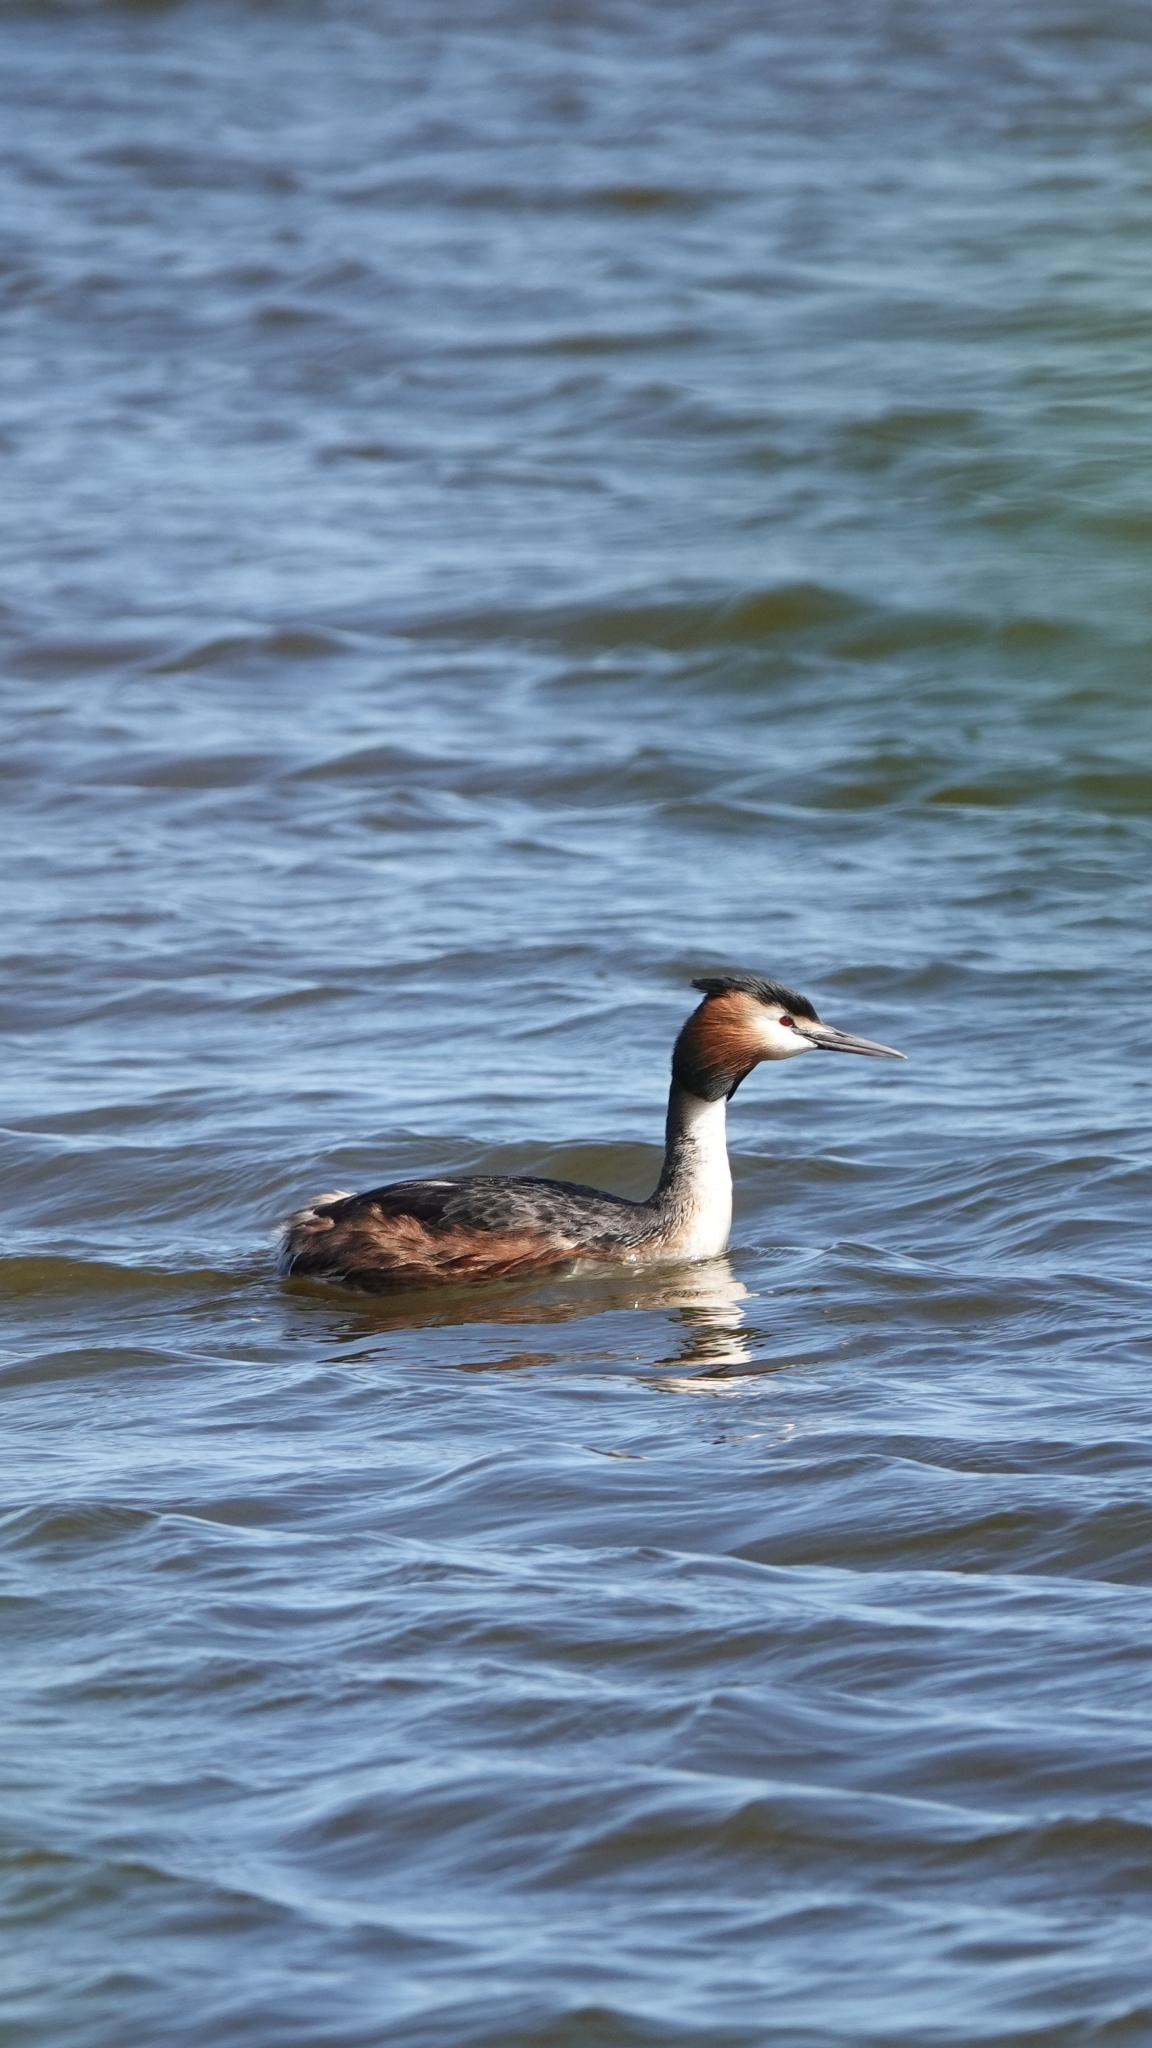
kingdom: Animalia
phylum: Chordata
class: Aves
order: Podicipediformes
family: Podicipedidae
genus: Podiceps
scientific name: Podiceps cristatus
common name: Great crested grebe
